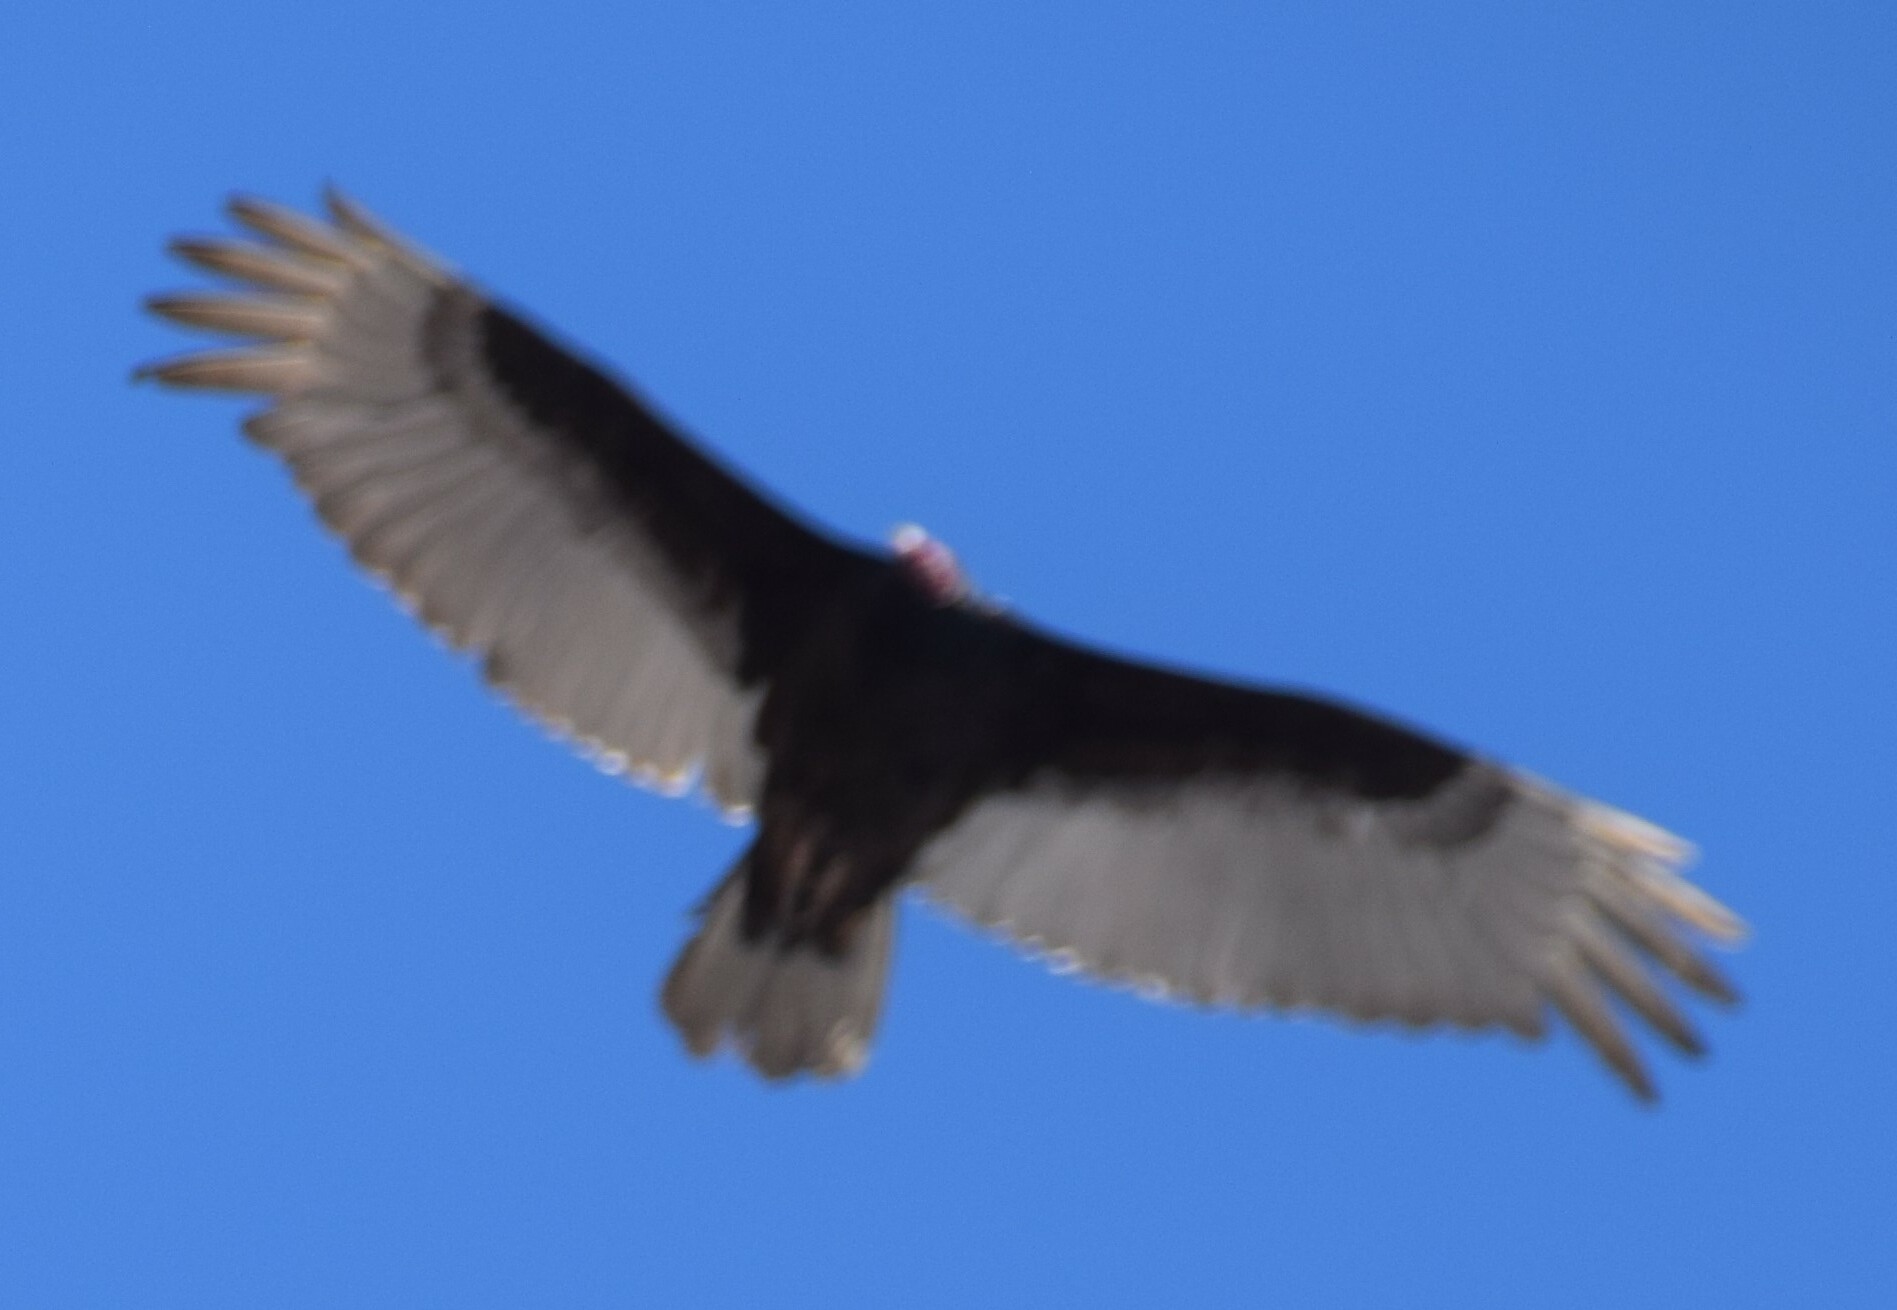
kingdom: Animalia
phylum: Chordata
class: Aves
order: Accipitriformes
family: Cathartidae
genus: Cathartes
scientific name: Cathartes aura
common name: Turkey vulture
